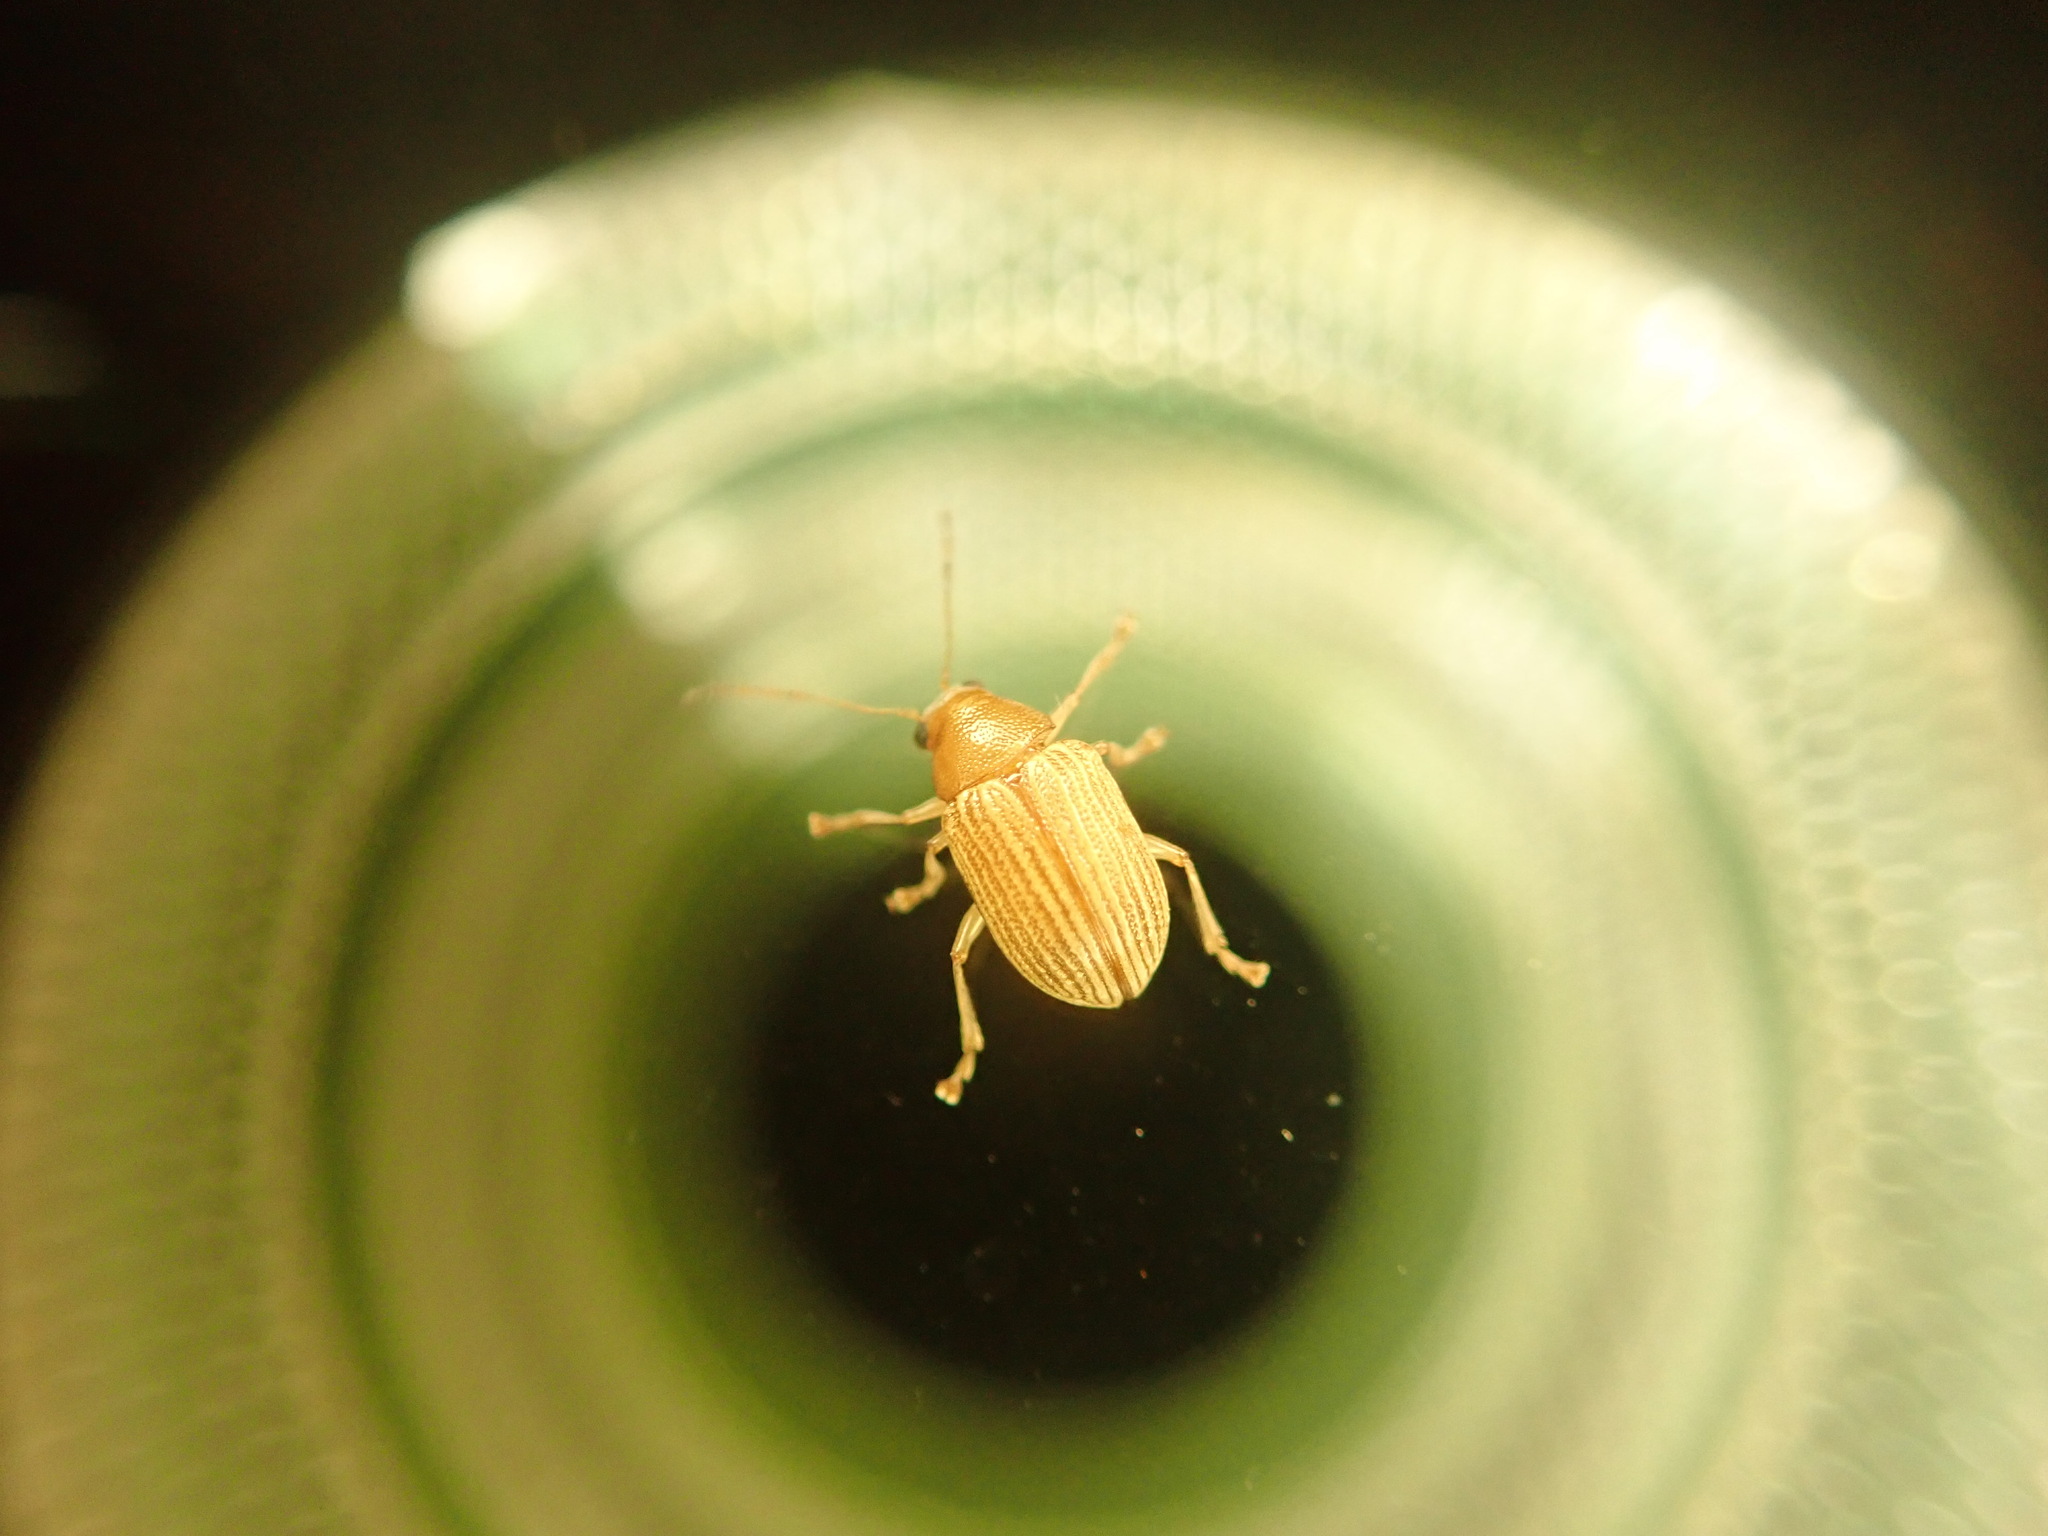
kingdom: Animalia
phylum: Arthropoda
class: Insecta
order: Coleoptera
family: Chrysomelidae
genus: Colaspis
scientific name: Colaspis brunnea
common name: Grape colaspis
